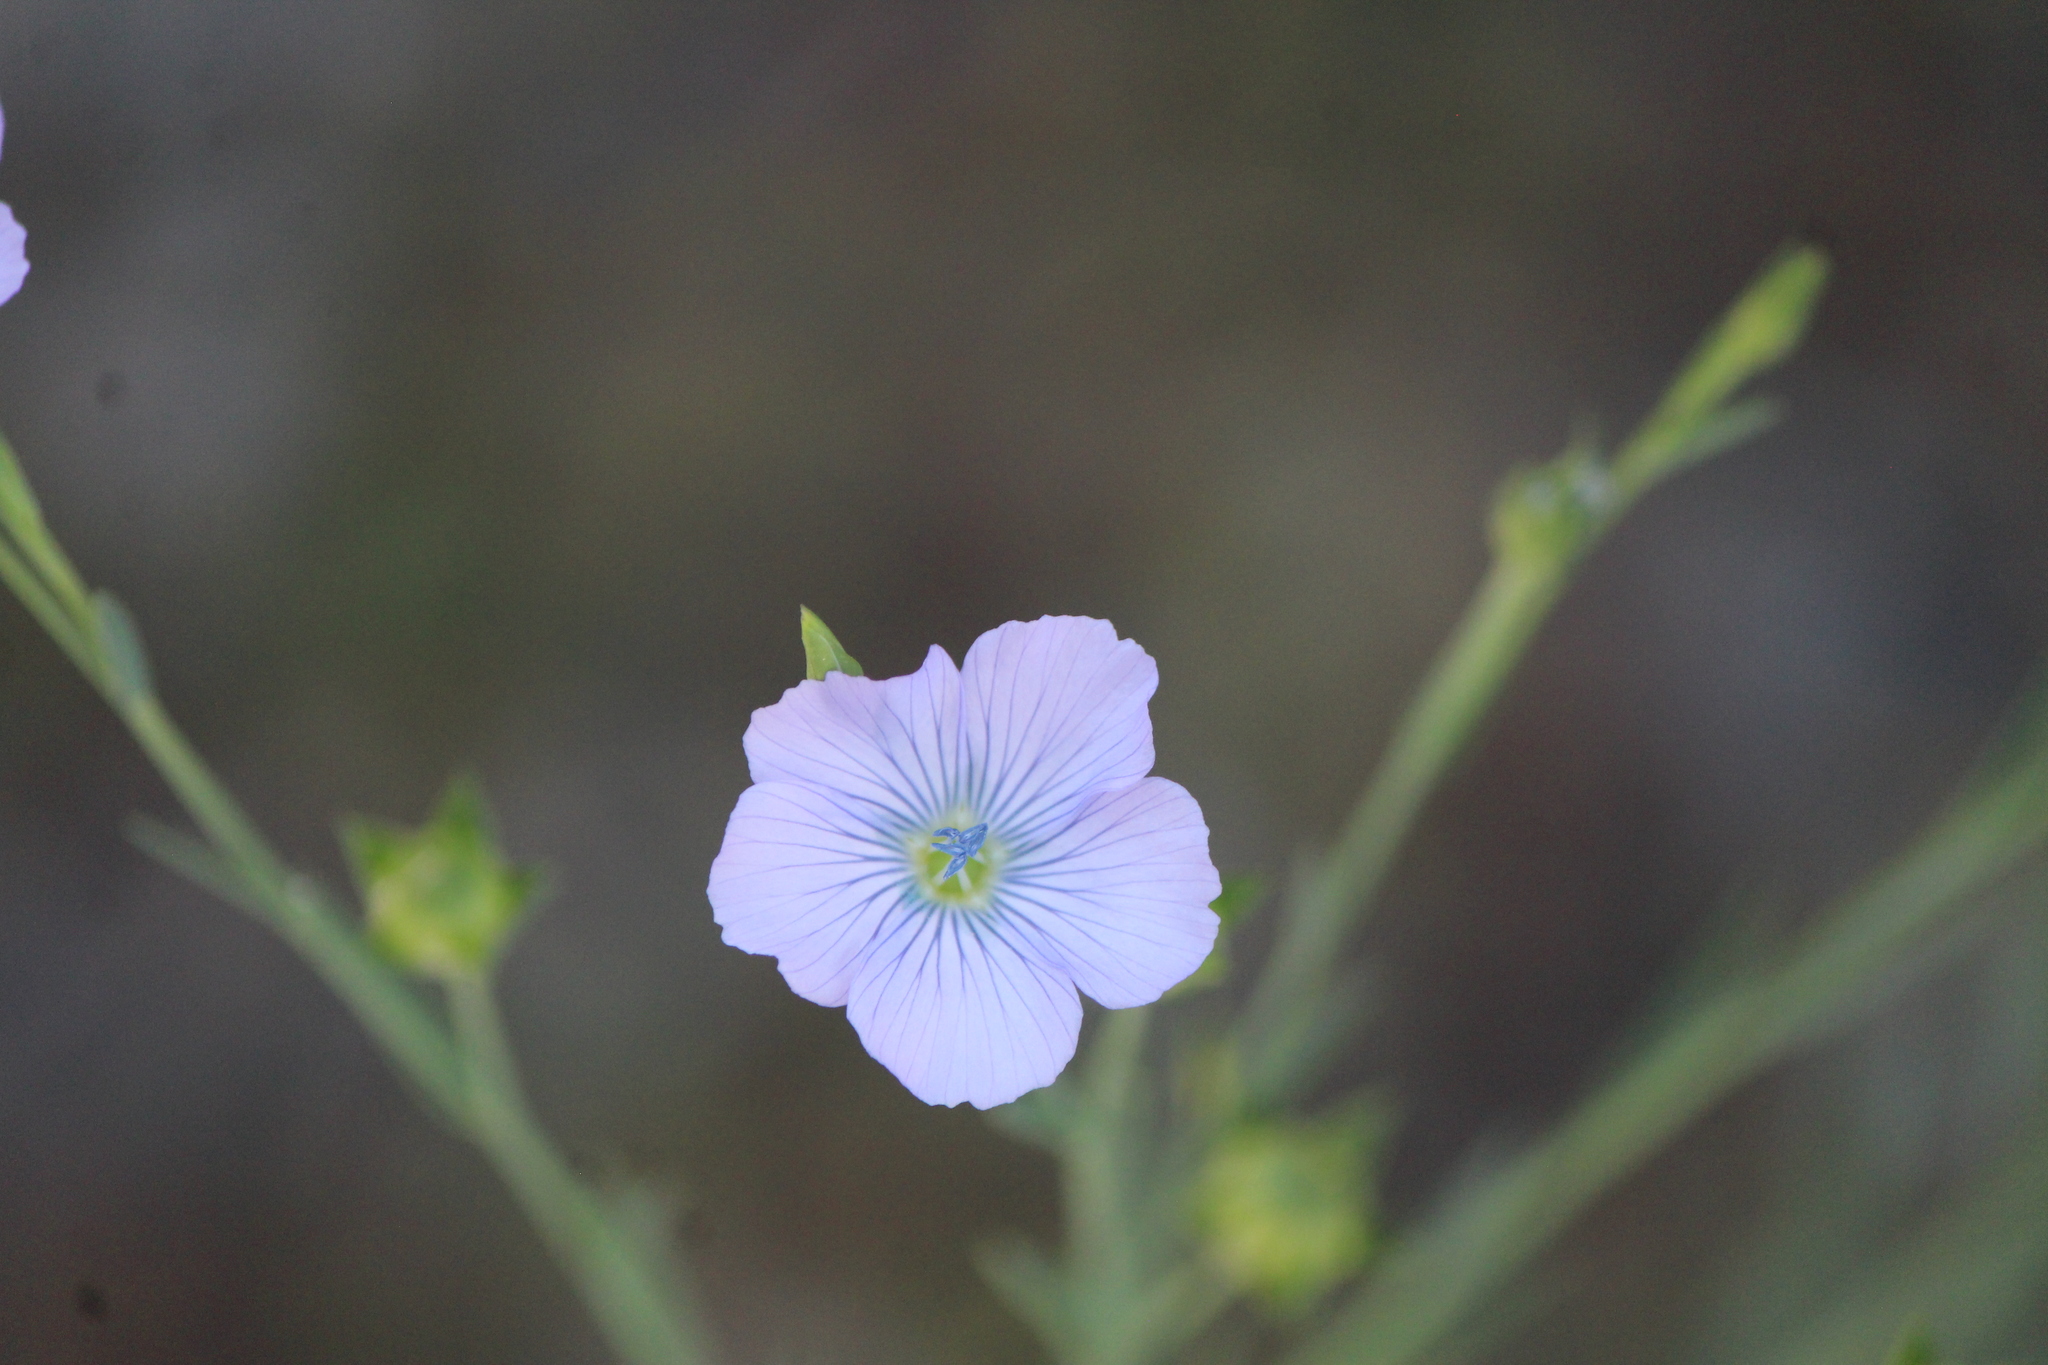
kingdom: Plantae
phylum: Tracheophyta
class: Magnoliopsida
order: Malpighiales
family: Linaceae
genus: Linum
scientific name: Linum usitatissimum
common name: Flax
